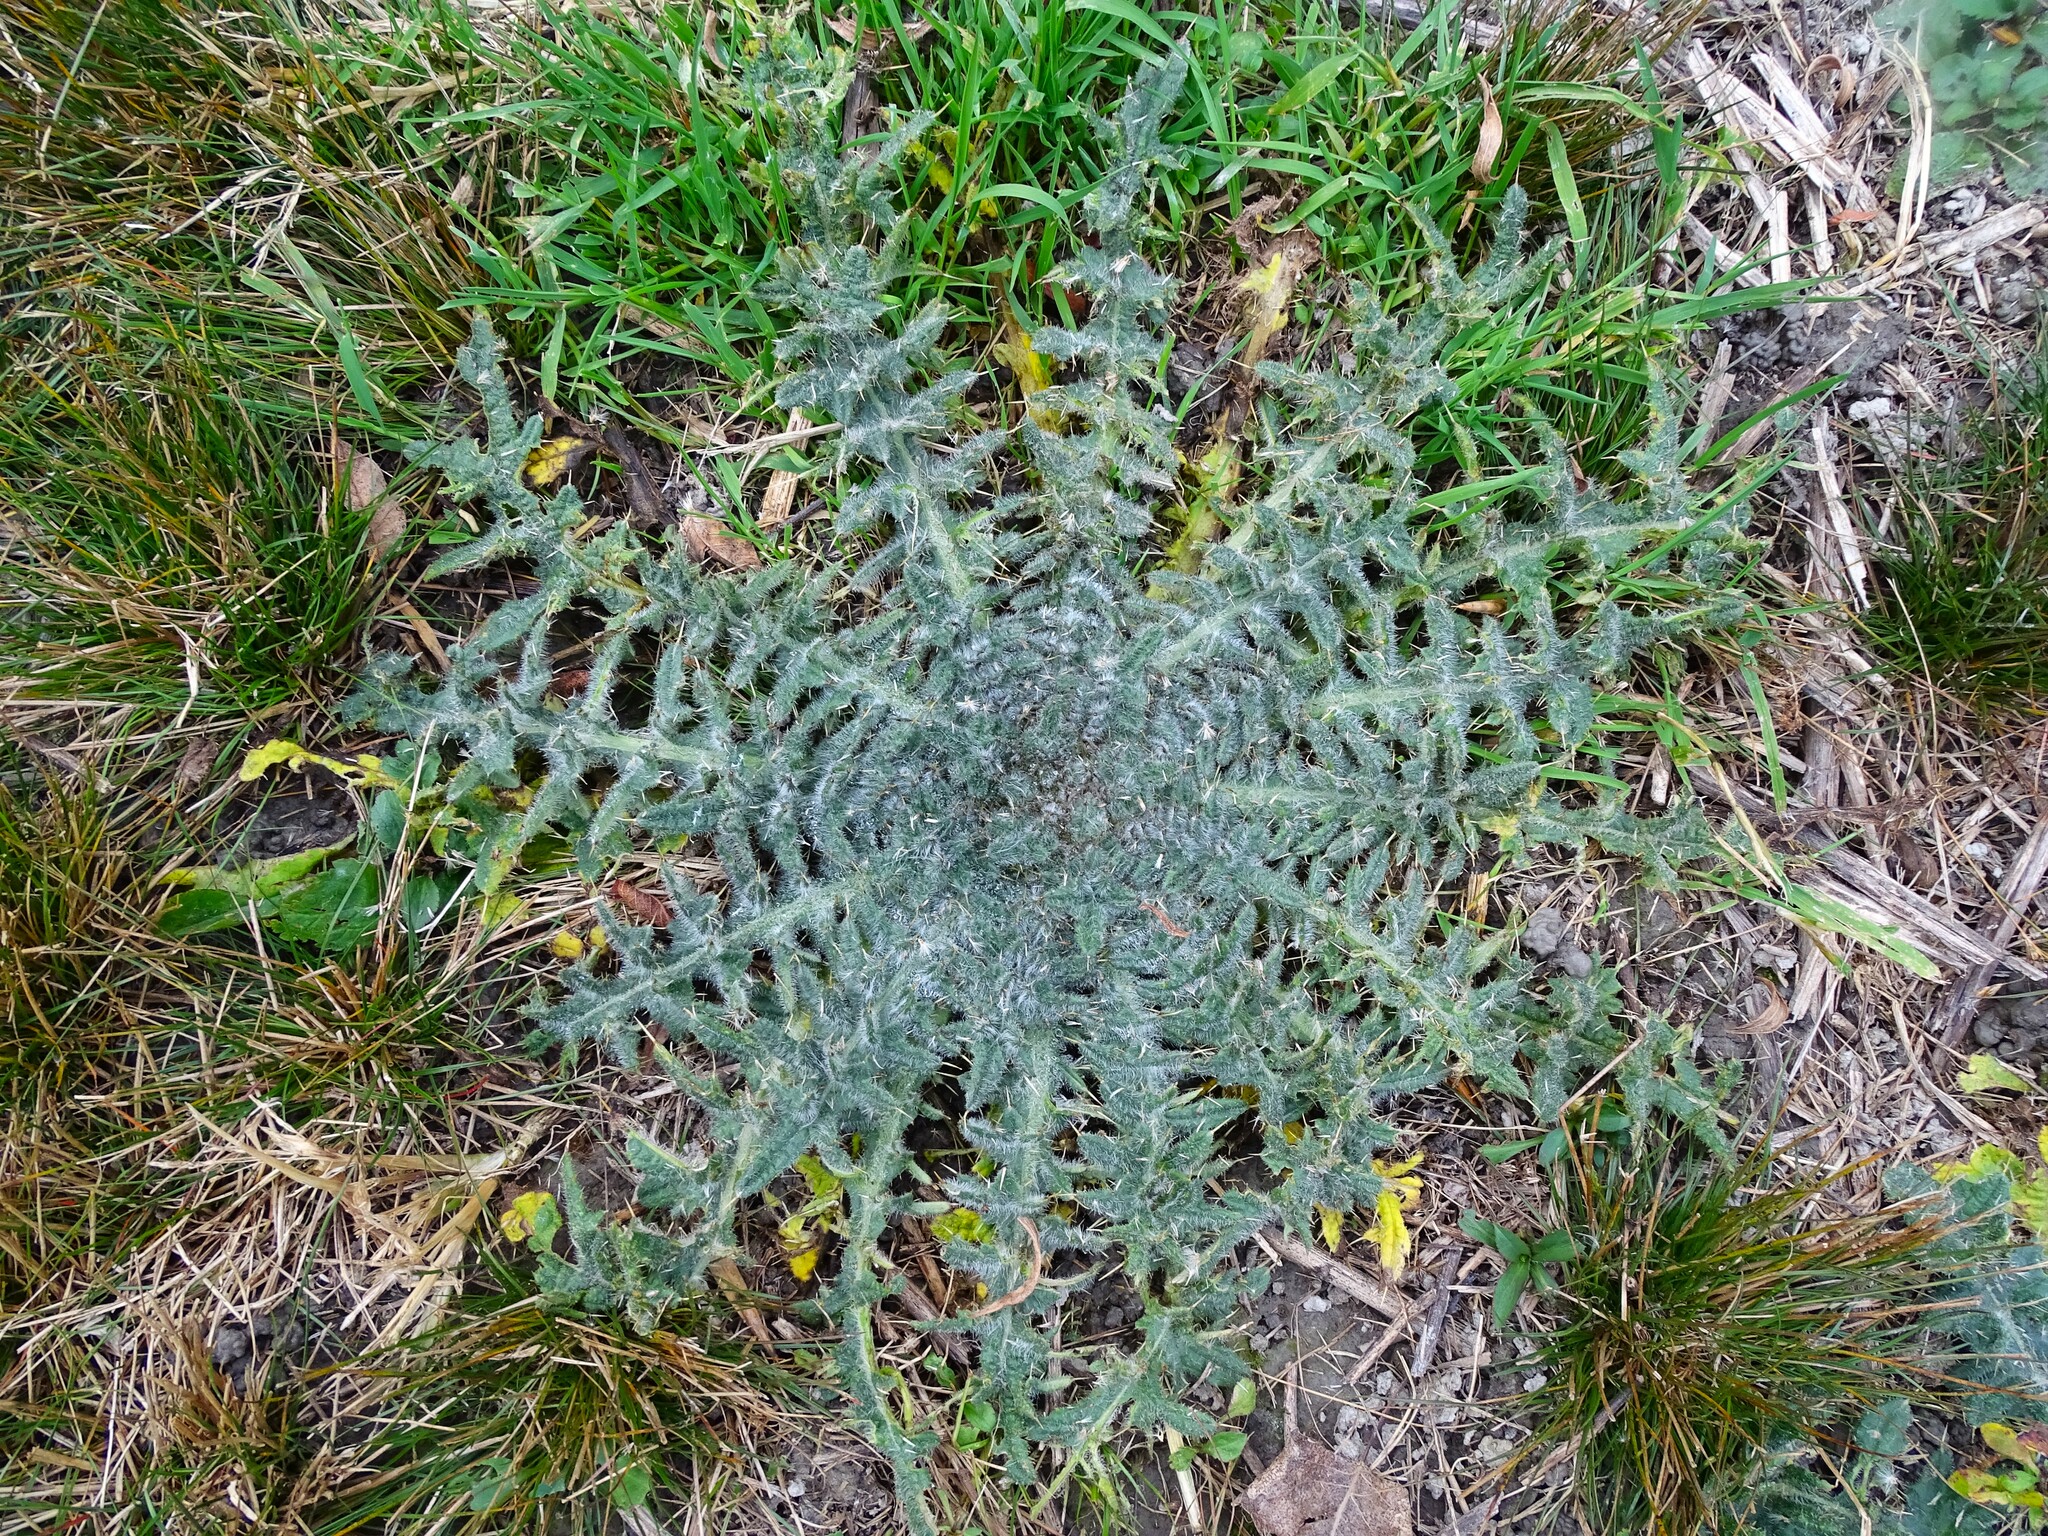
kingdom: Plantae
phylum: Tracheophyta
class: Magnoliopsida
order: Asterales
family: Asteraceae
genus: Cirsium
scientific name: Cirsium vulgare
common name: Bull thistle
